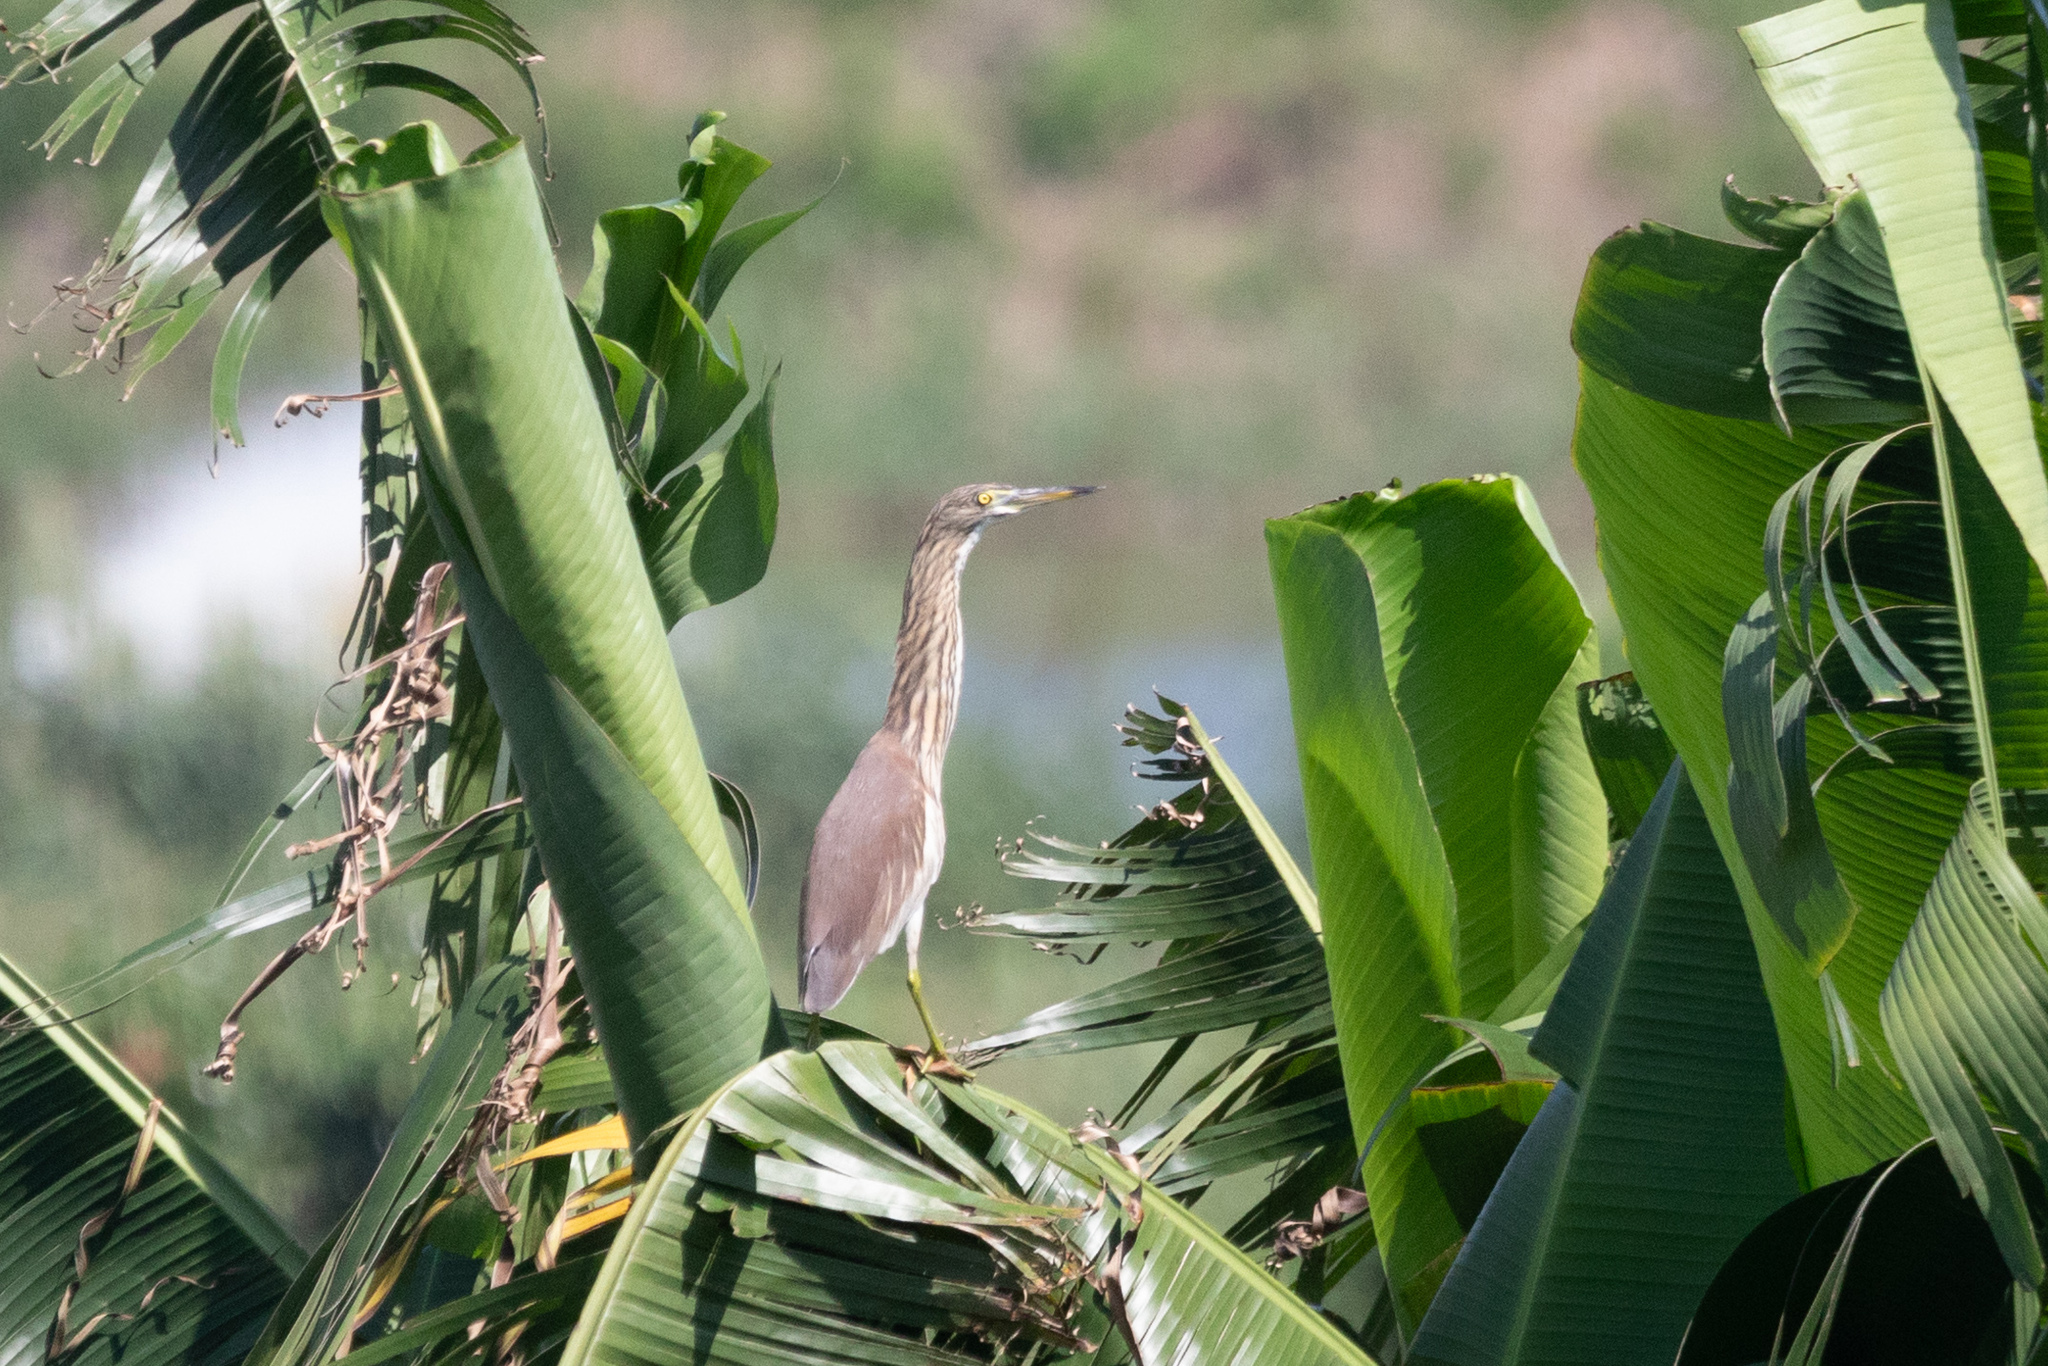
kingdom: Animalia
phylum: Chordata
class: Aves
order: Pelecaniformes
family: Ardeidae
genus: Ardeola
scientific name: Ardeola bacchus
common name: Chinese pond heron
